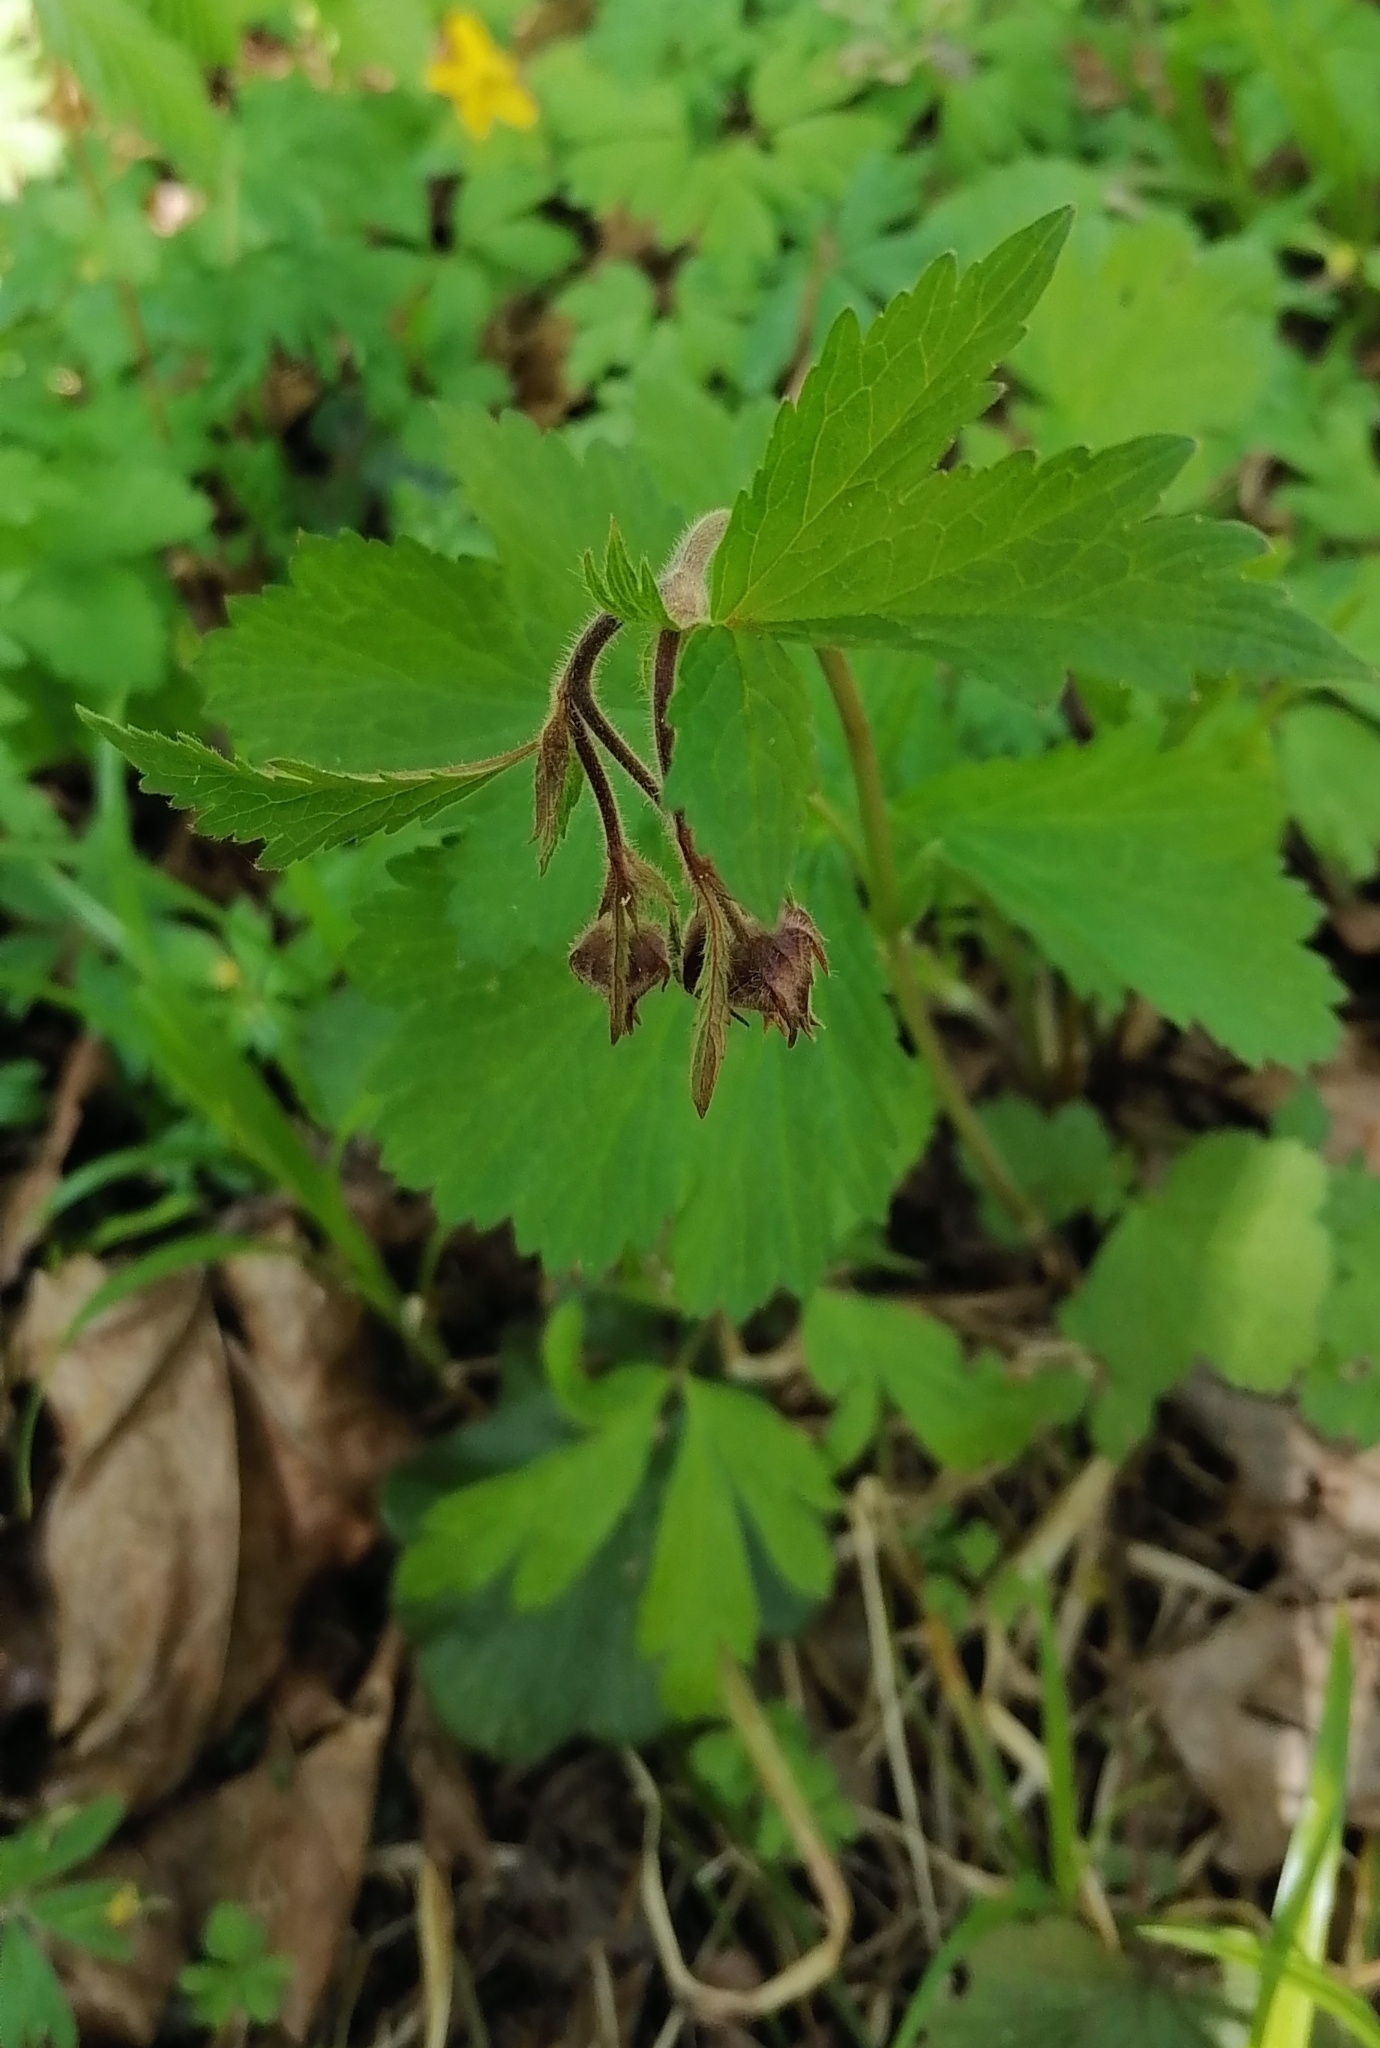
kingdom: Plantae
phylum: Tracheophyta
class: Magnoliopsida
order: Rosales
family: Rosaceae
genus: Geum
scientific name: Geum rivale
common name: Water avens
